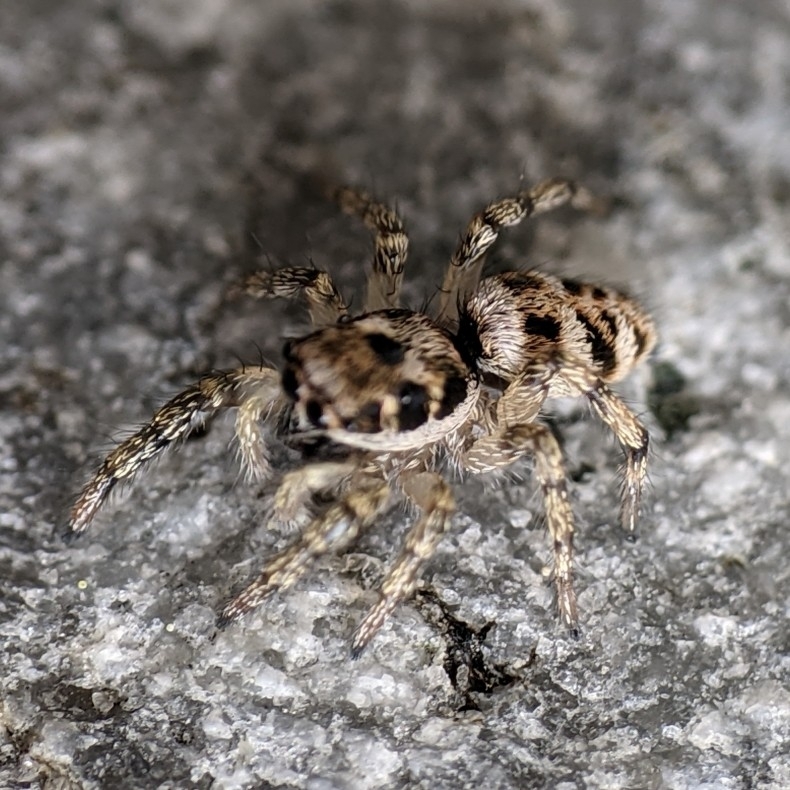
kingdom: Animalia
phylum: Arthropoda
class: Arachnida
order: Araneae
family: Salticidae
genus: Salticus
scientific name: Salticus scenicus
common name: Zebra jumper
